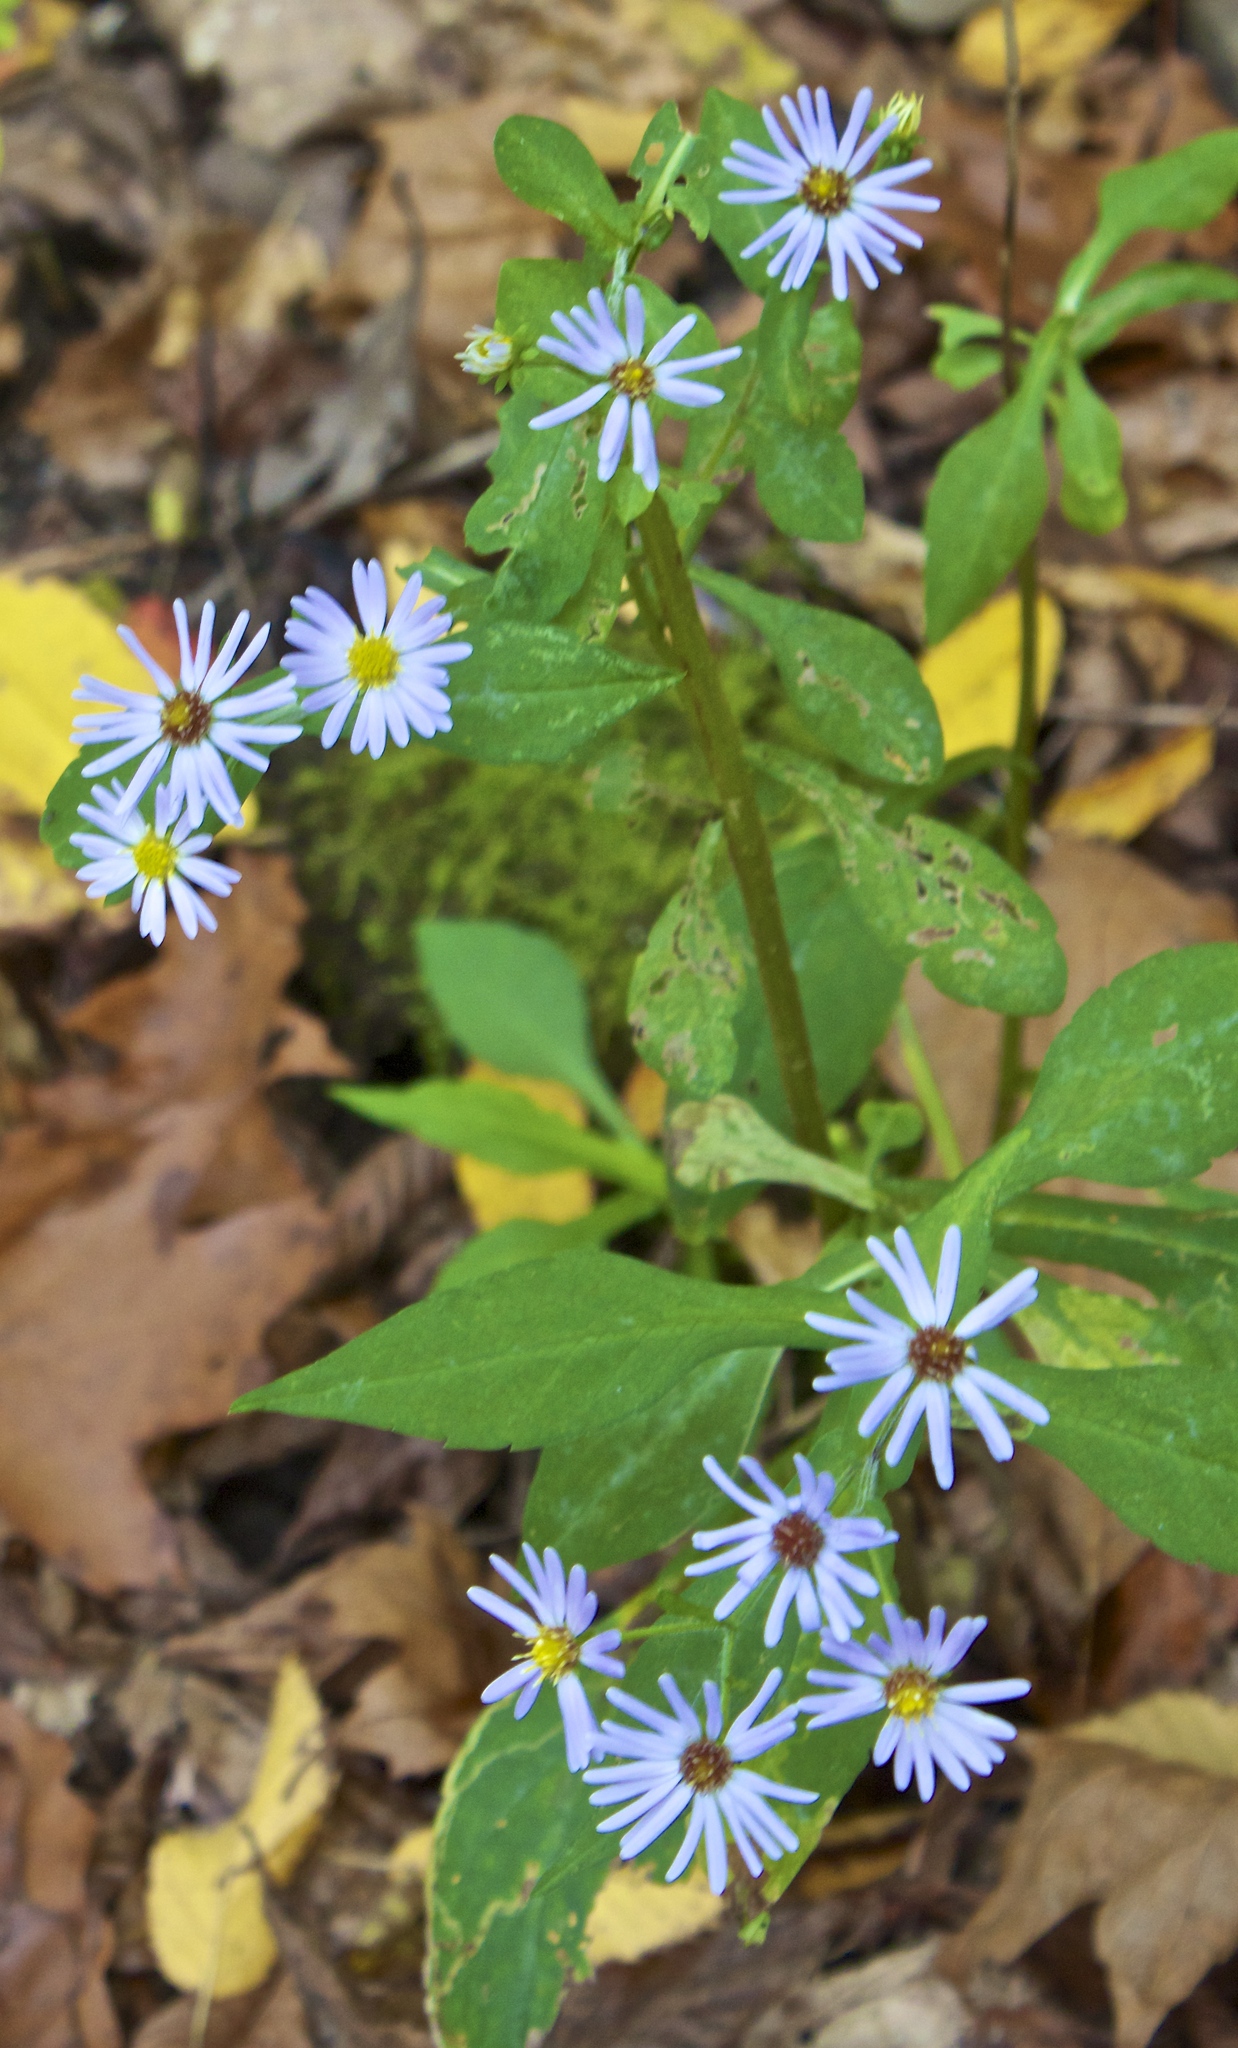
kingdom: Plantae
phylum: Tracheophyta
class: Magnoliopsida
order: Asterales
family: Asteraceae
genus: Symphyotrichum
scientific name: Symphyotrichum prenanthoides
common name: Crooked-stem aster
